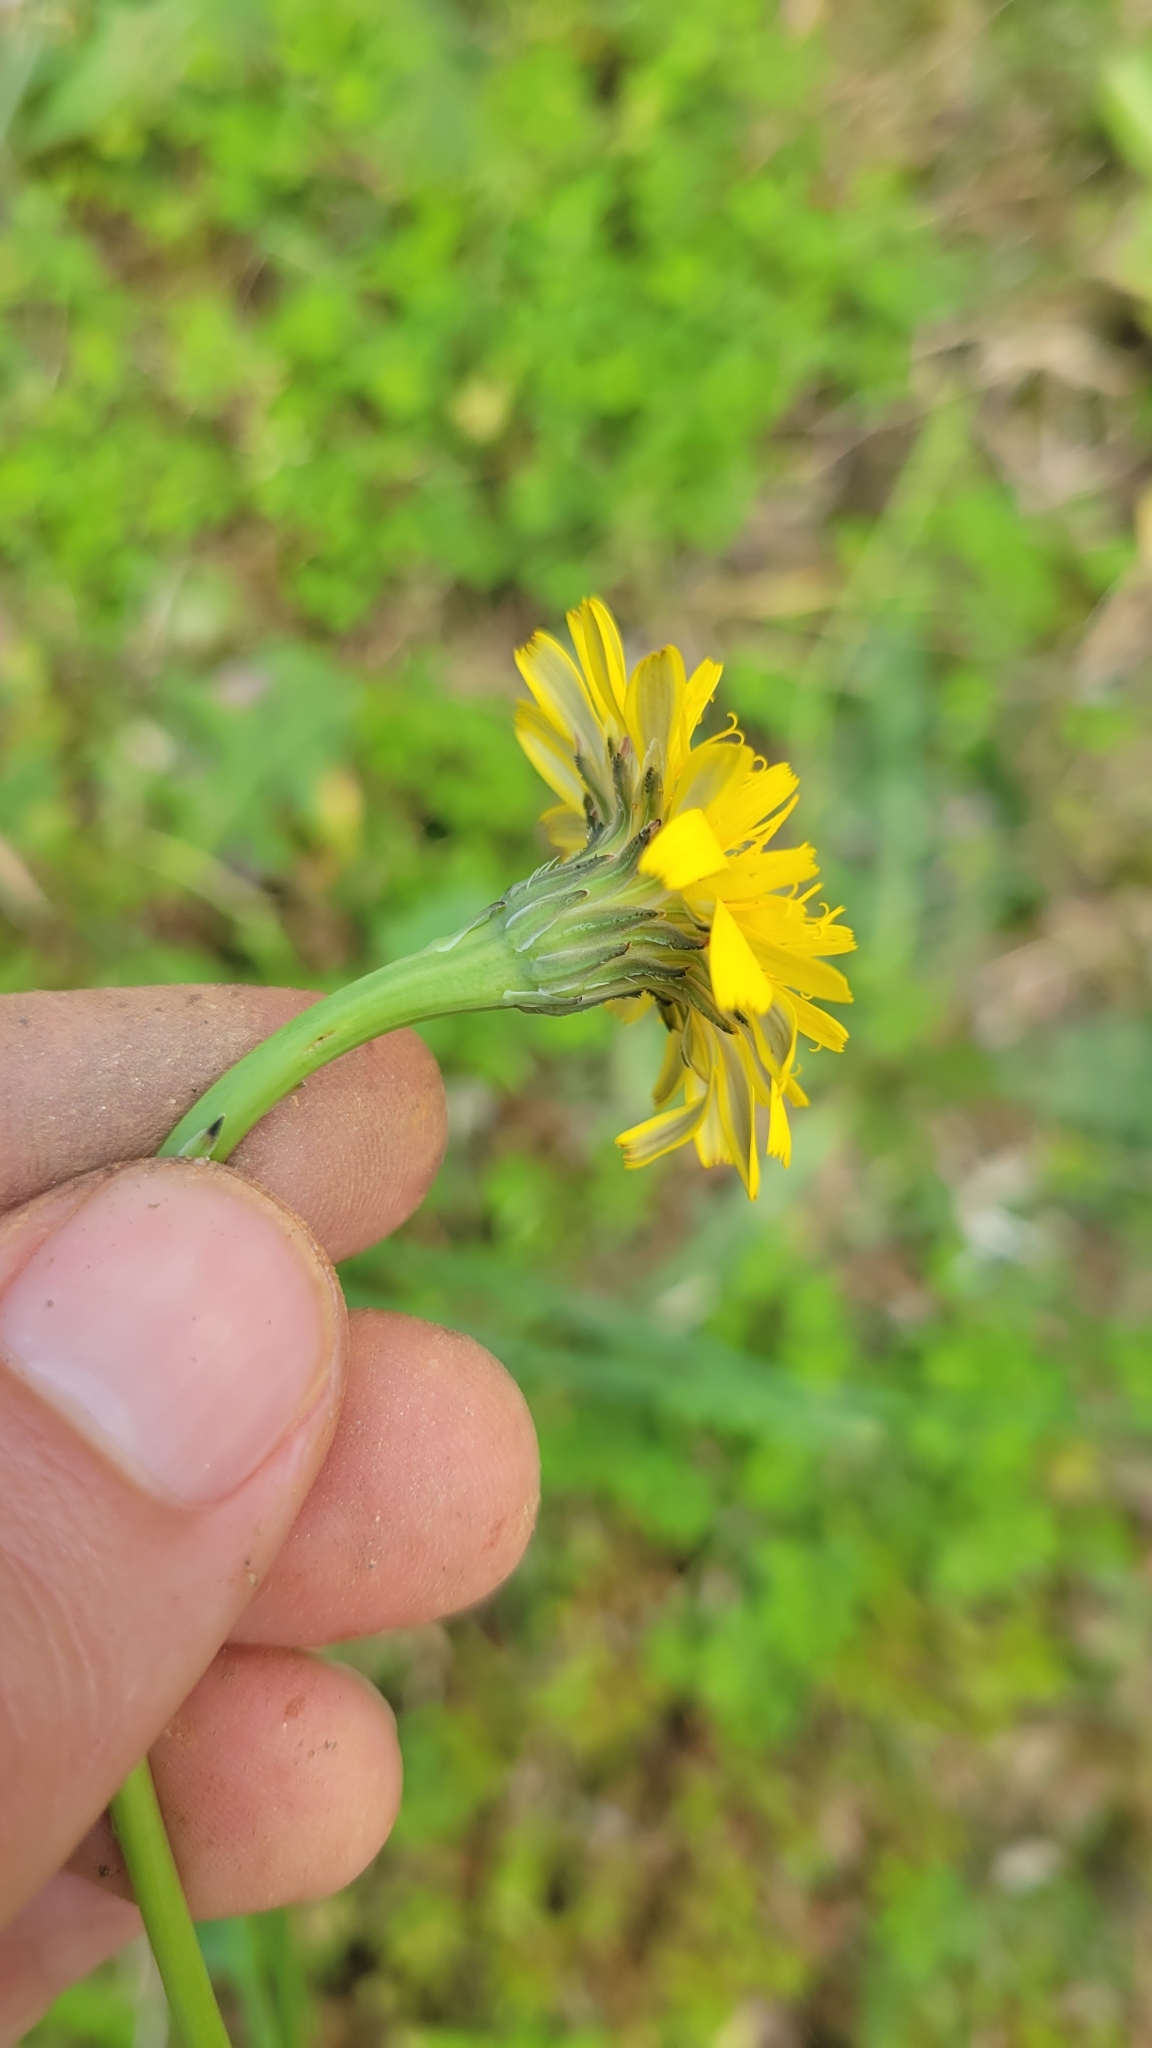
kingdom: Plantae
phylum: Tracheophyta
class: Magnoliopsida
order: Asterales
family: Asteraceae
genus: Hypochaeris
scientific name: Hypochaeris radicata
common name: Flatweed
